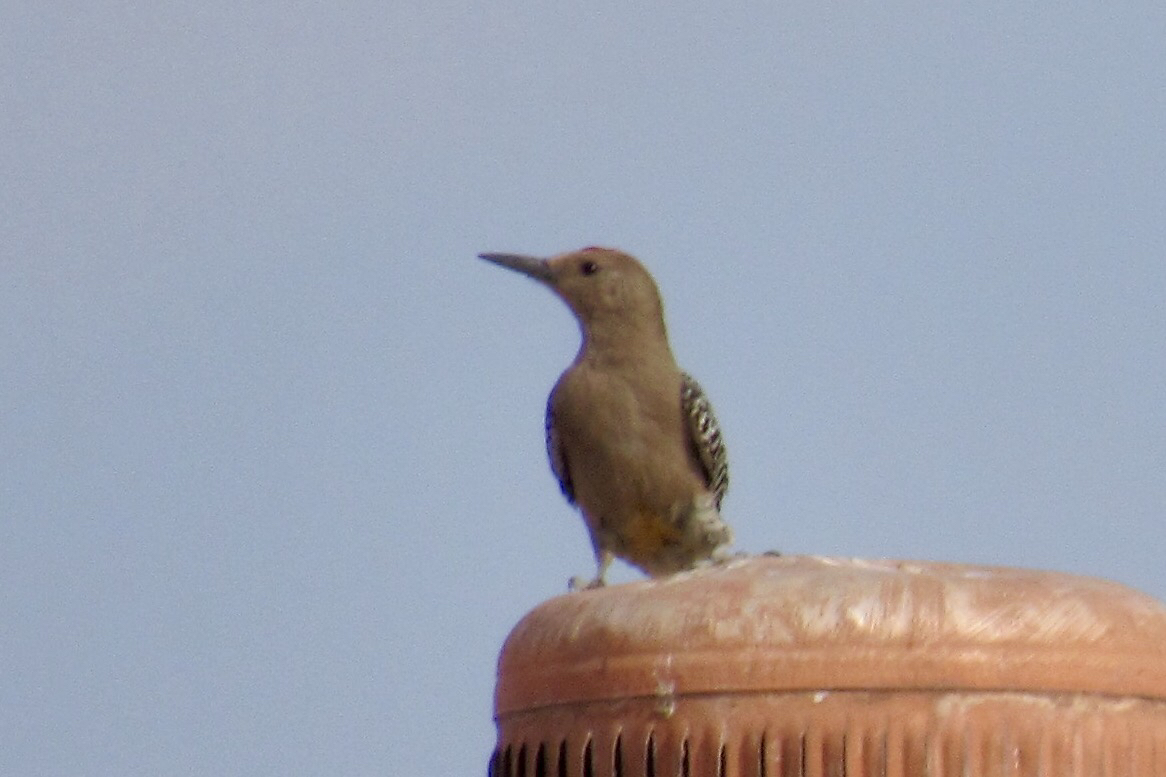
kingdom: Animalia
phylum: Chordata
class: Aves
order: Piciformes
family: Picidae
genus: Melanerpes
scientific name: Melanerpes uropygialis
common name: Gila woodpecker
